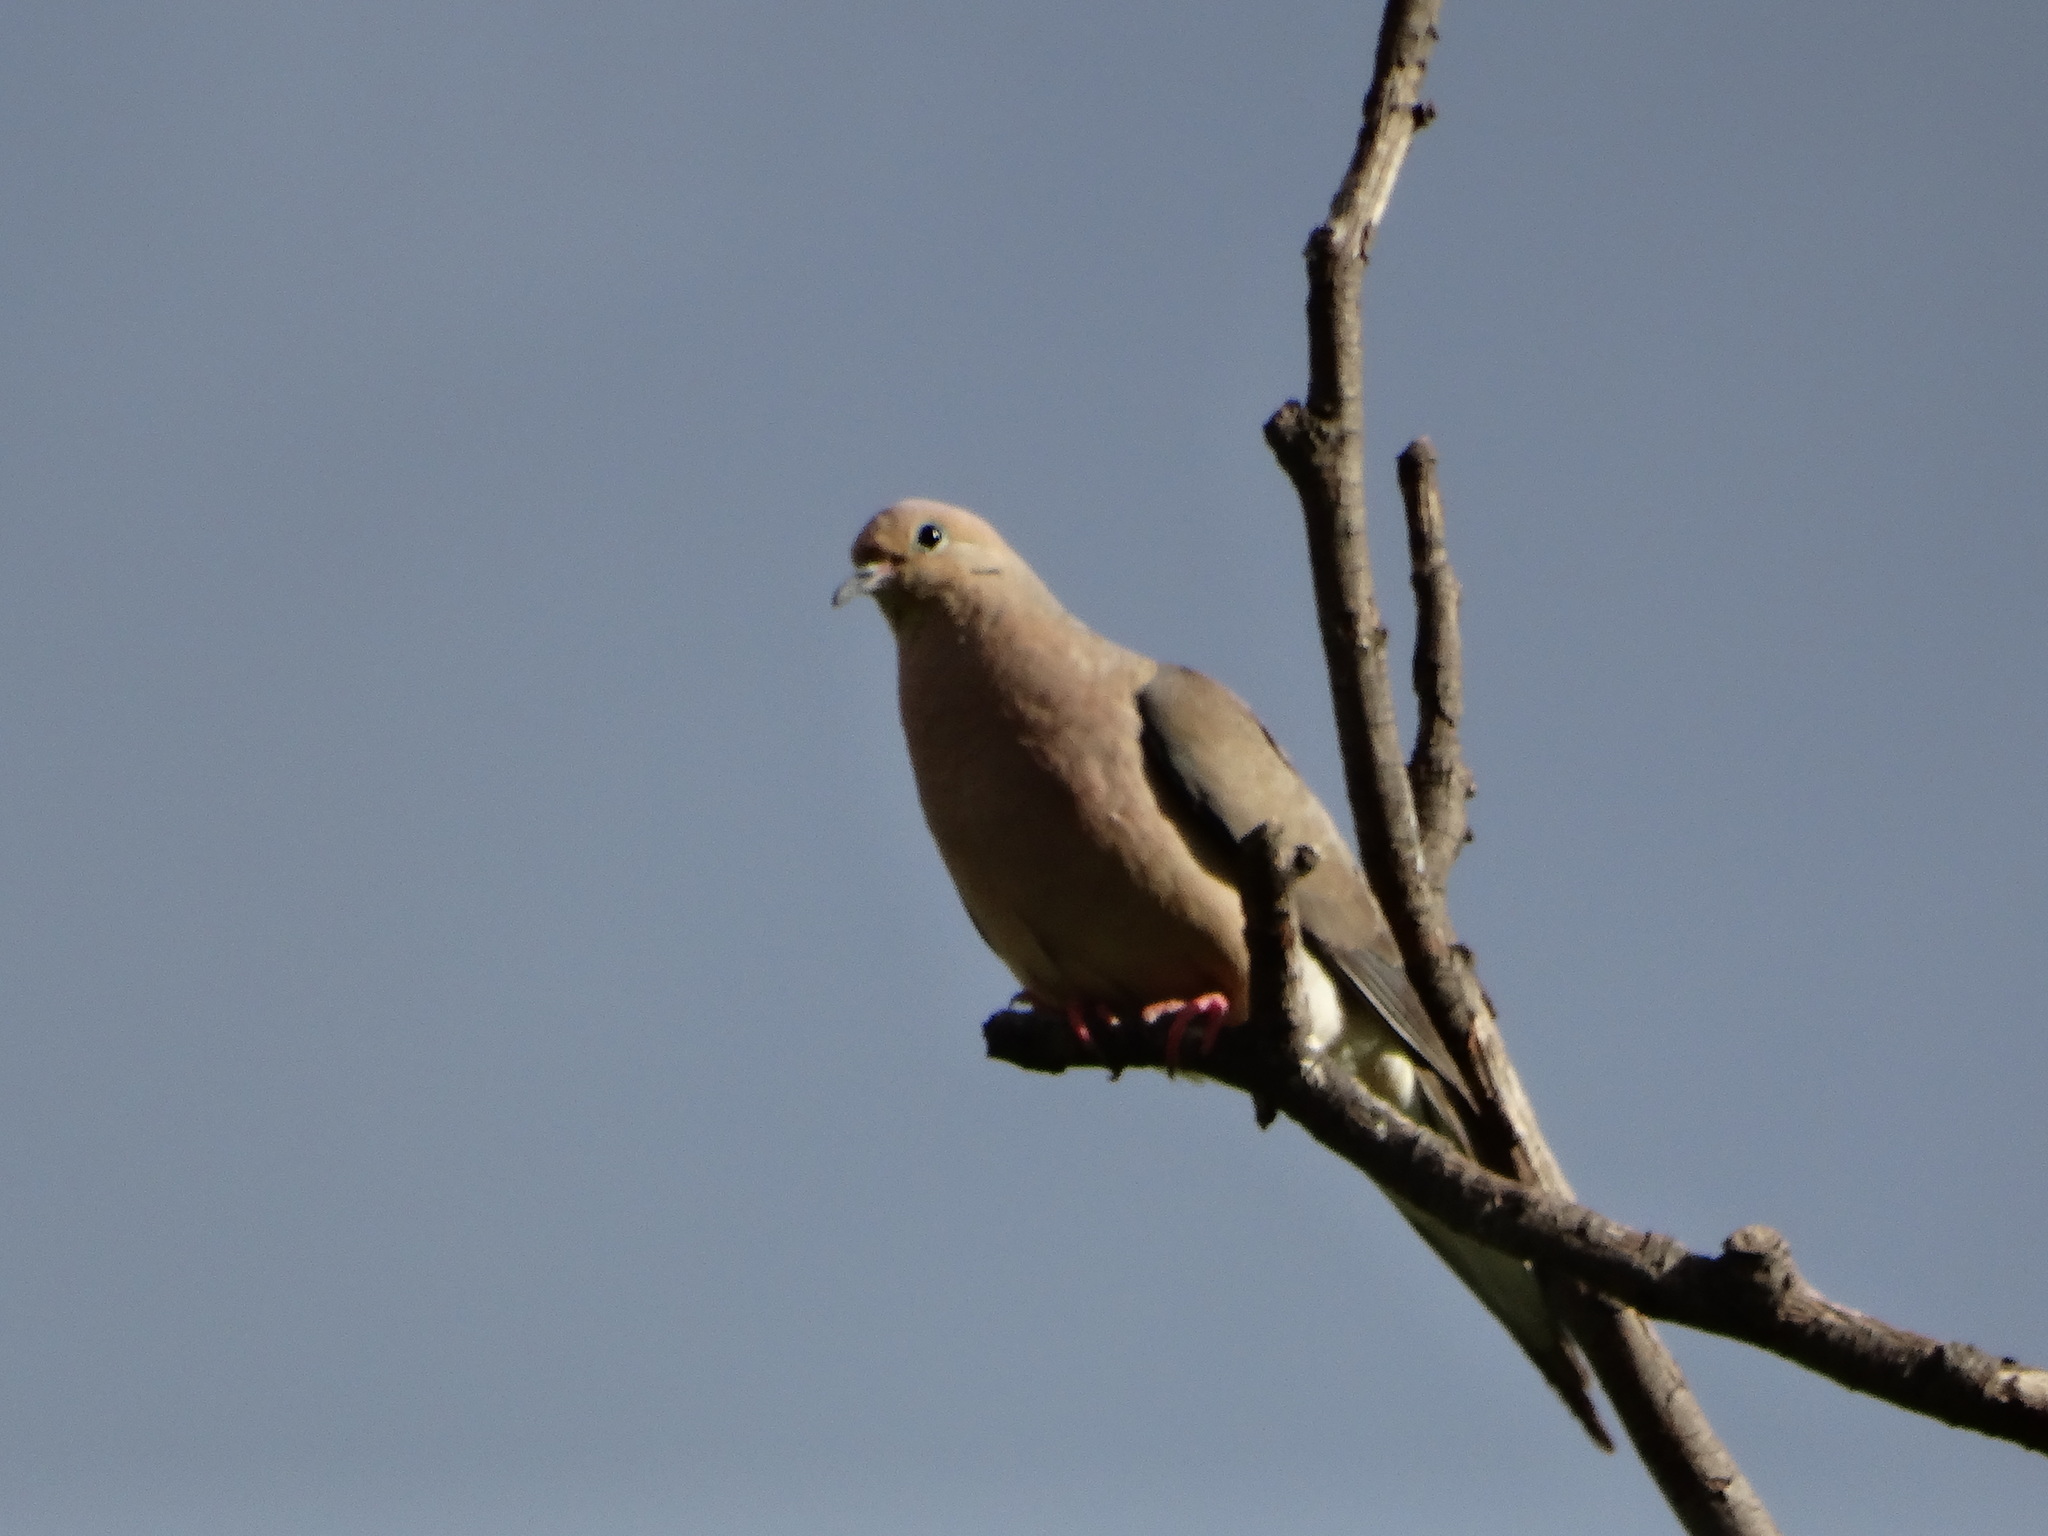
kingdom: Animalia
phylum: Chordata
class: Aves
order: Columbiformes
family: Columbidae
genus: Zenaida
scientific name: Zenaida macroura
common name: Mourning dove
